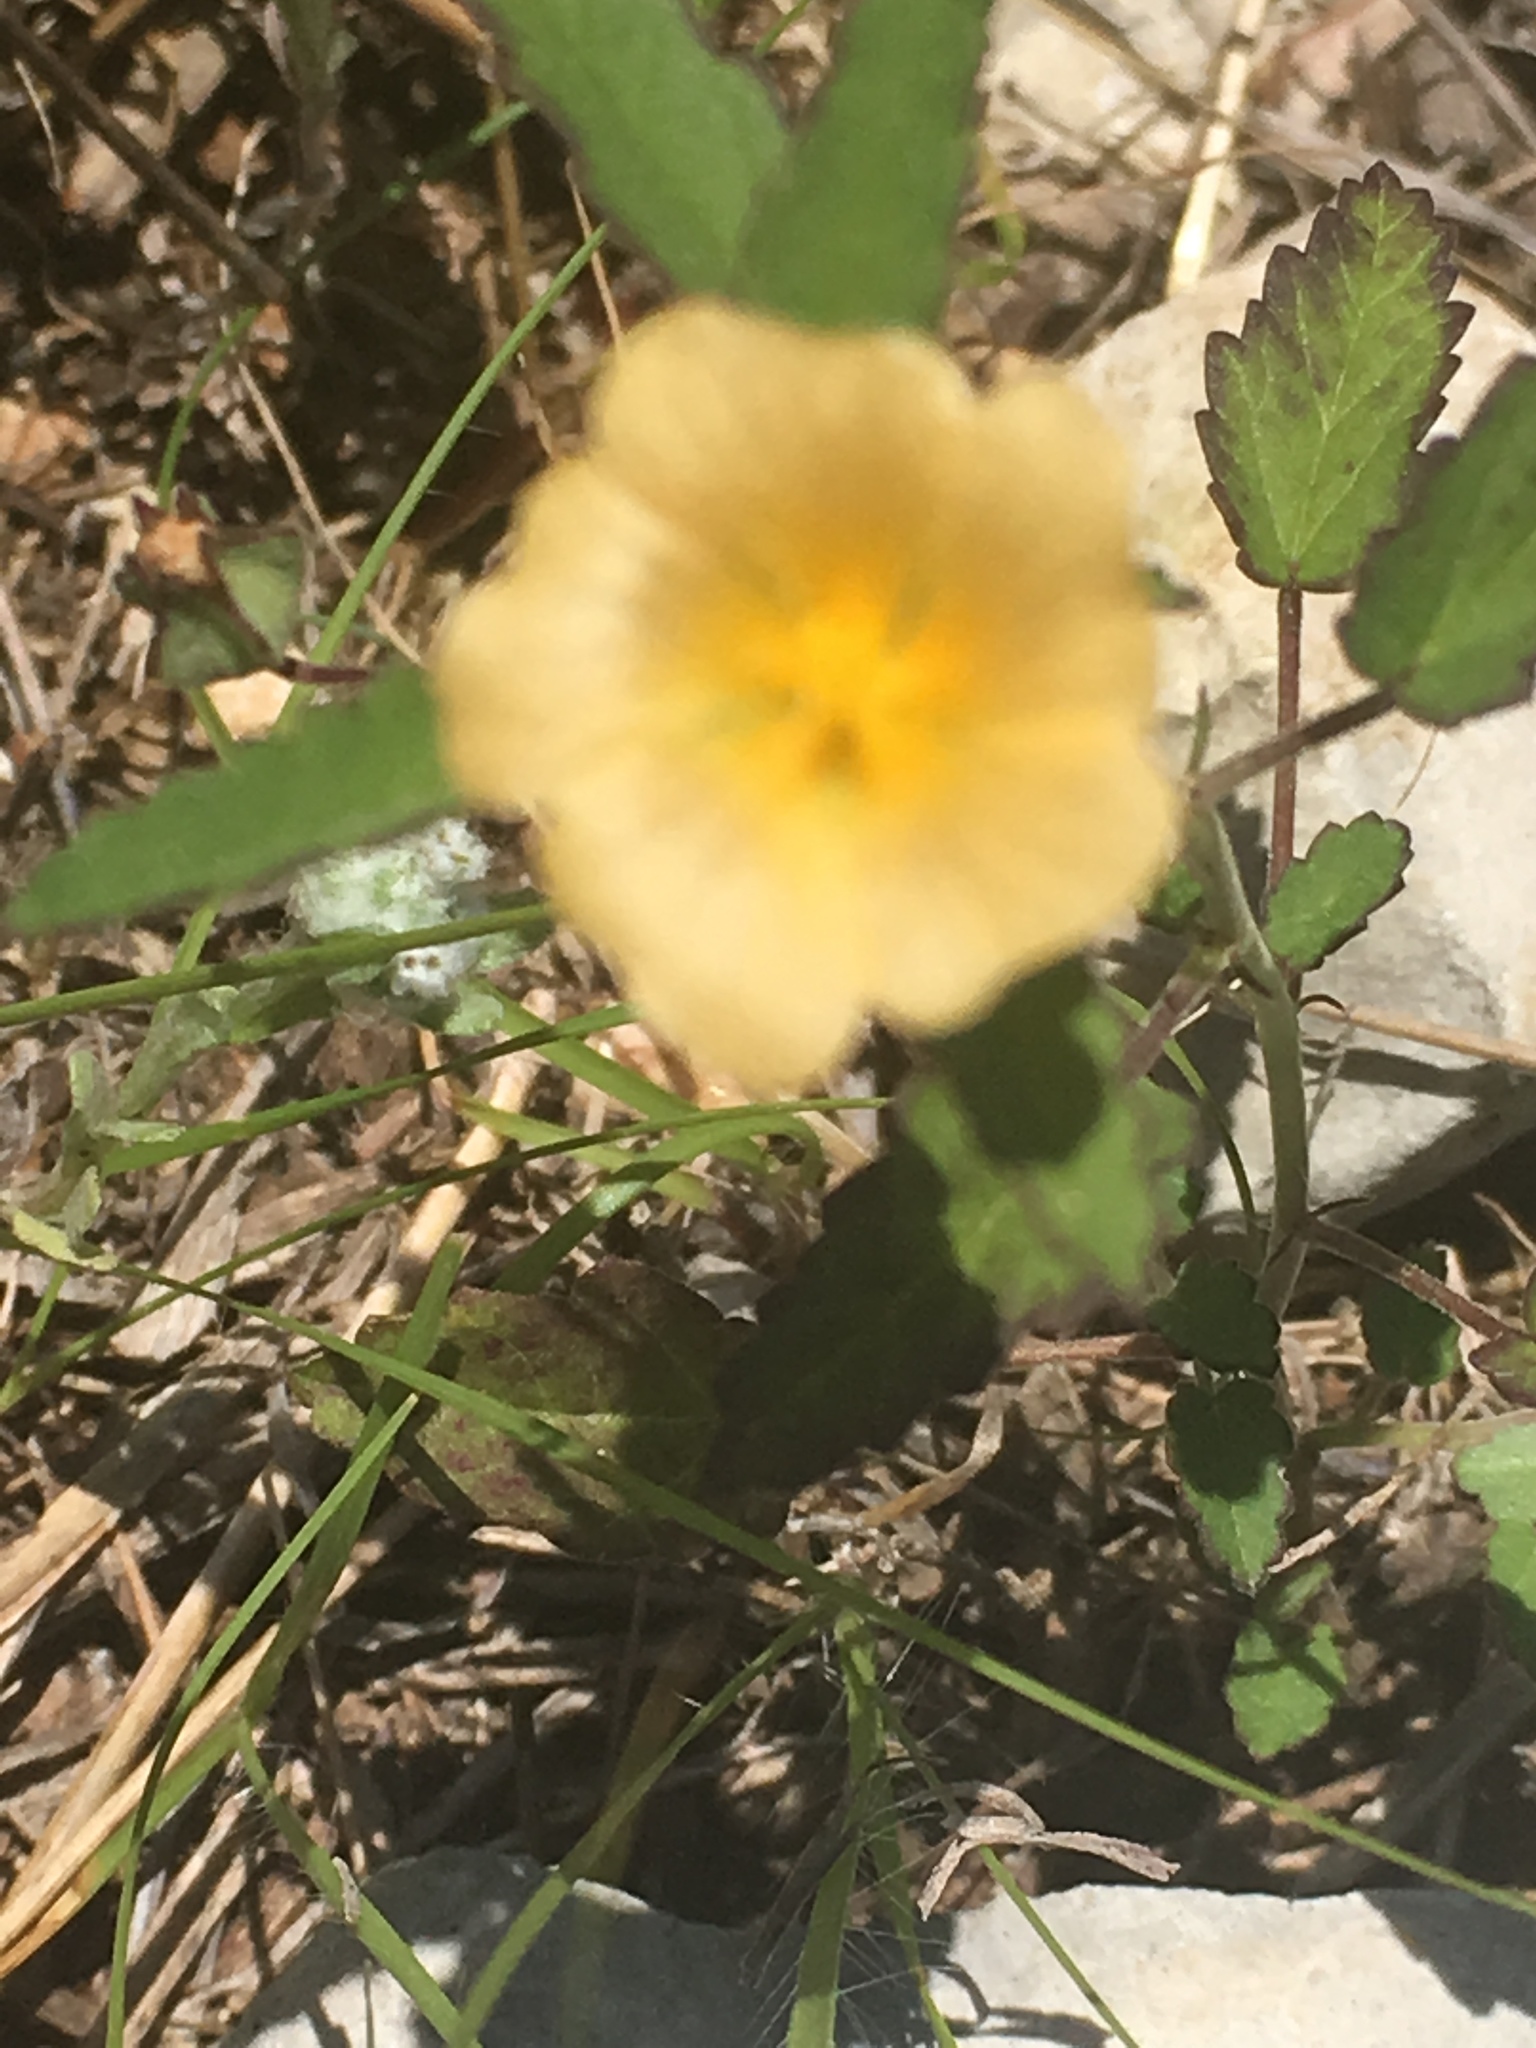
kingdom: Plantae
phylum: Tracheophyta
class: Magnoliopsida
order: Malvales
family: Malvaceae
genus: Sida
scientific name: Sida abutilifolia
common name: Spreading fanpetals
